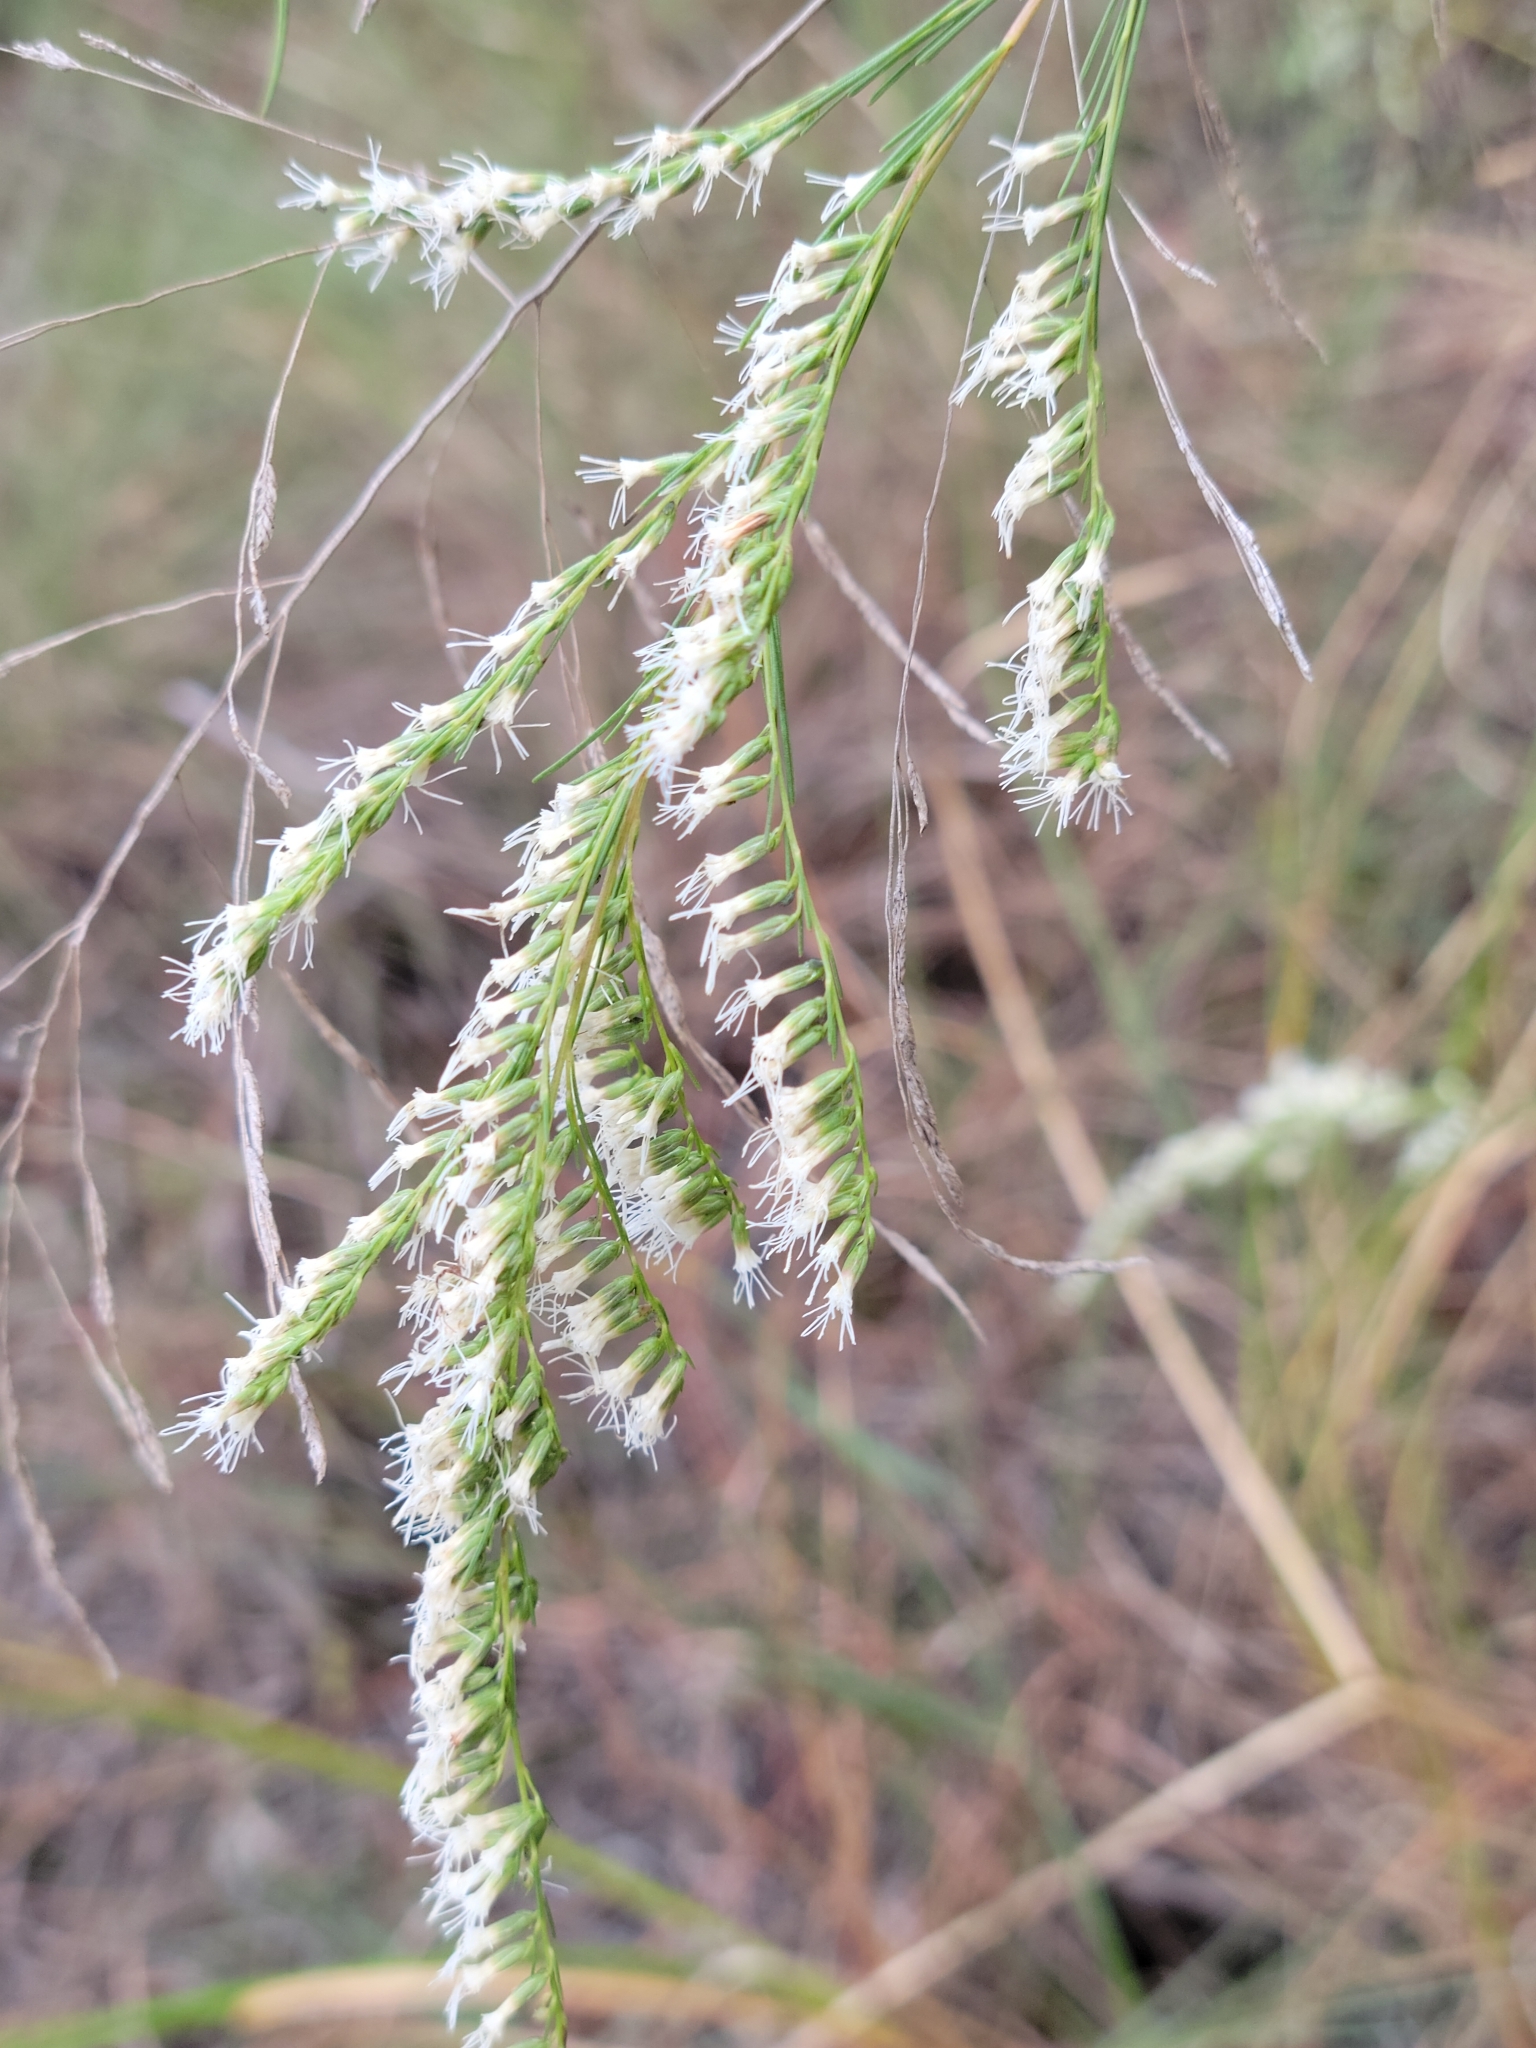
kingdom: Plantae
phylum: Tracheophyta
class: Magnoliopsida
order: Asterales
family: Asteraceae
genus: Eupatorium
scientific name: Eupatorium leptophyllum
